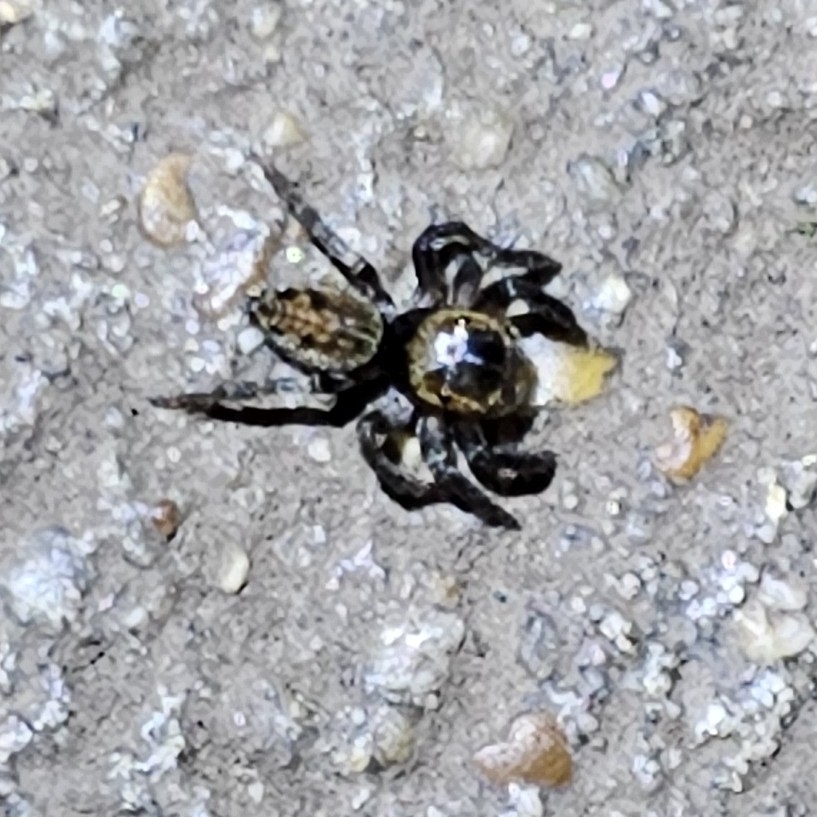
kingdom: Animalia
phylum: Arthropoda
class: Arachnida
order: Araneae
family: Salticidae
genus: Hasarius
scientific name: Hasarius adansoni
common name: Jumping spider
